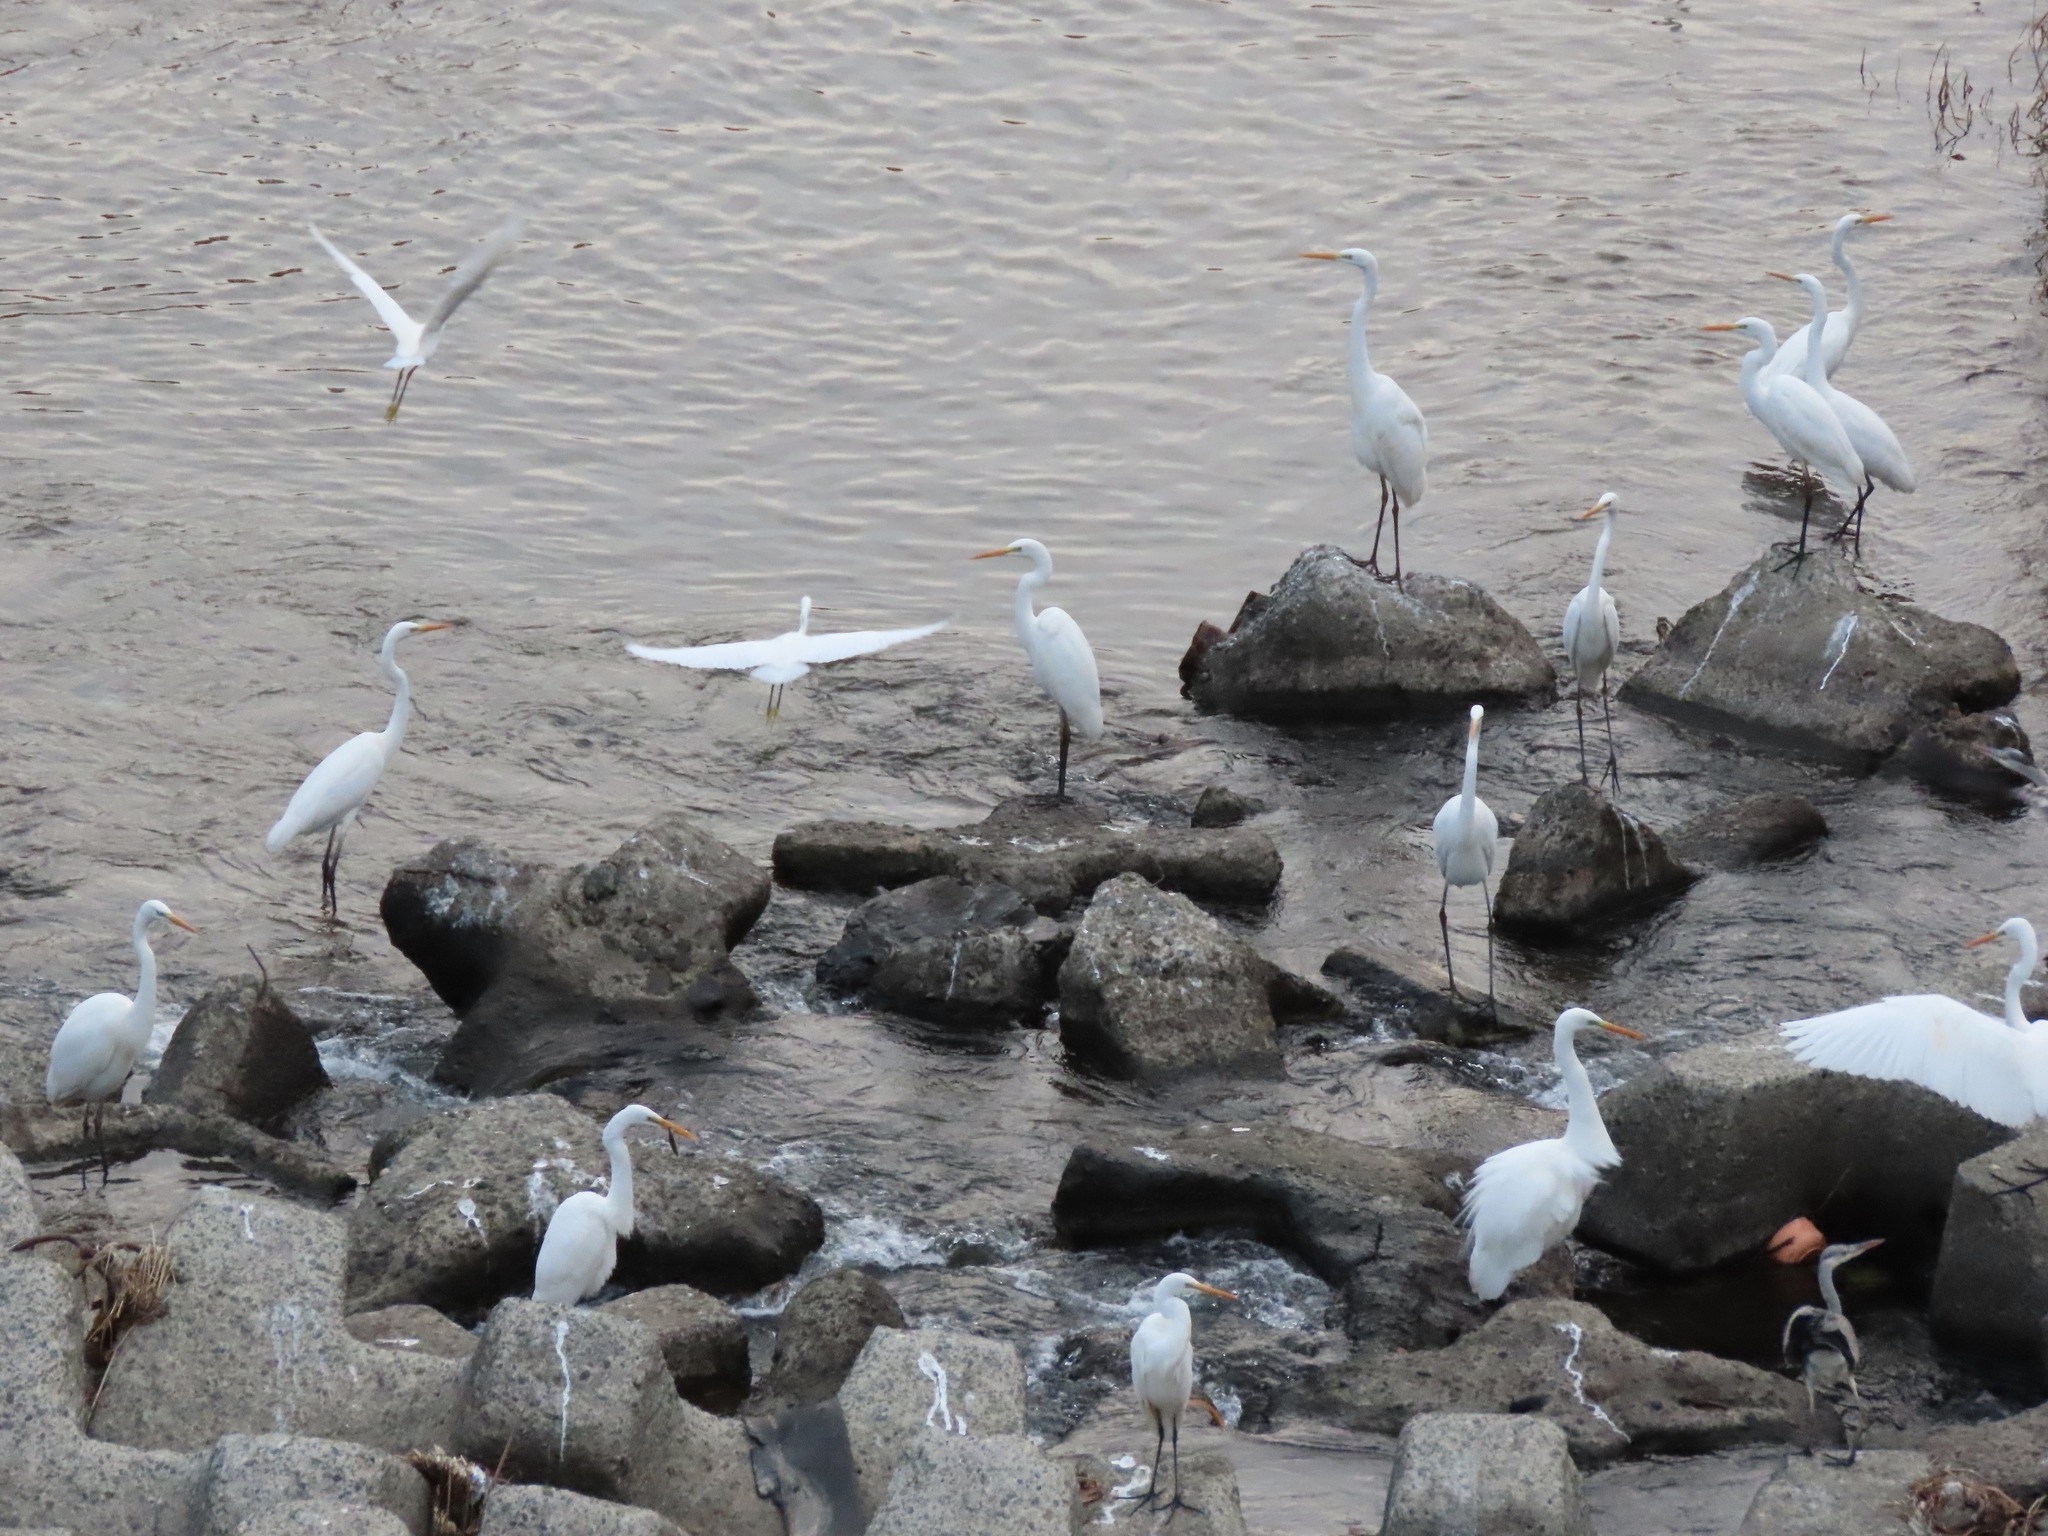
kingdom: Animalia
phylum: Chordata
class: Aves
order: Pelecaniformes
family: Ardeidae
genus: Ardea
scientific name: Ardea alba
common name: Great egret
